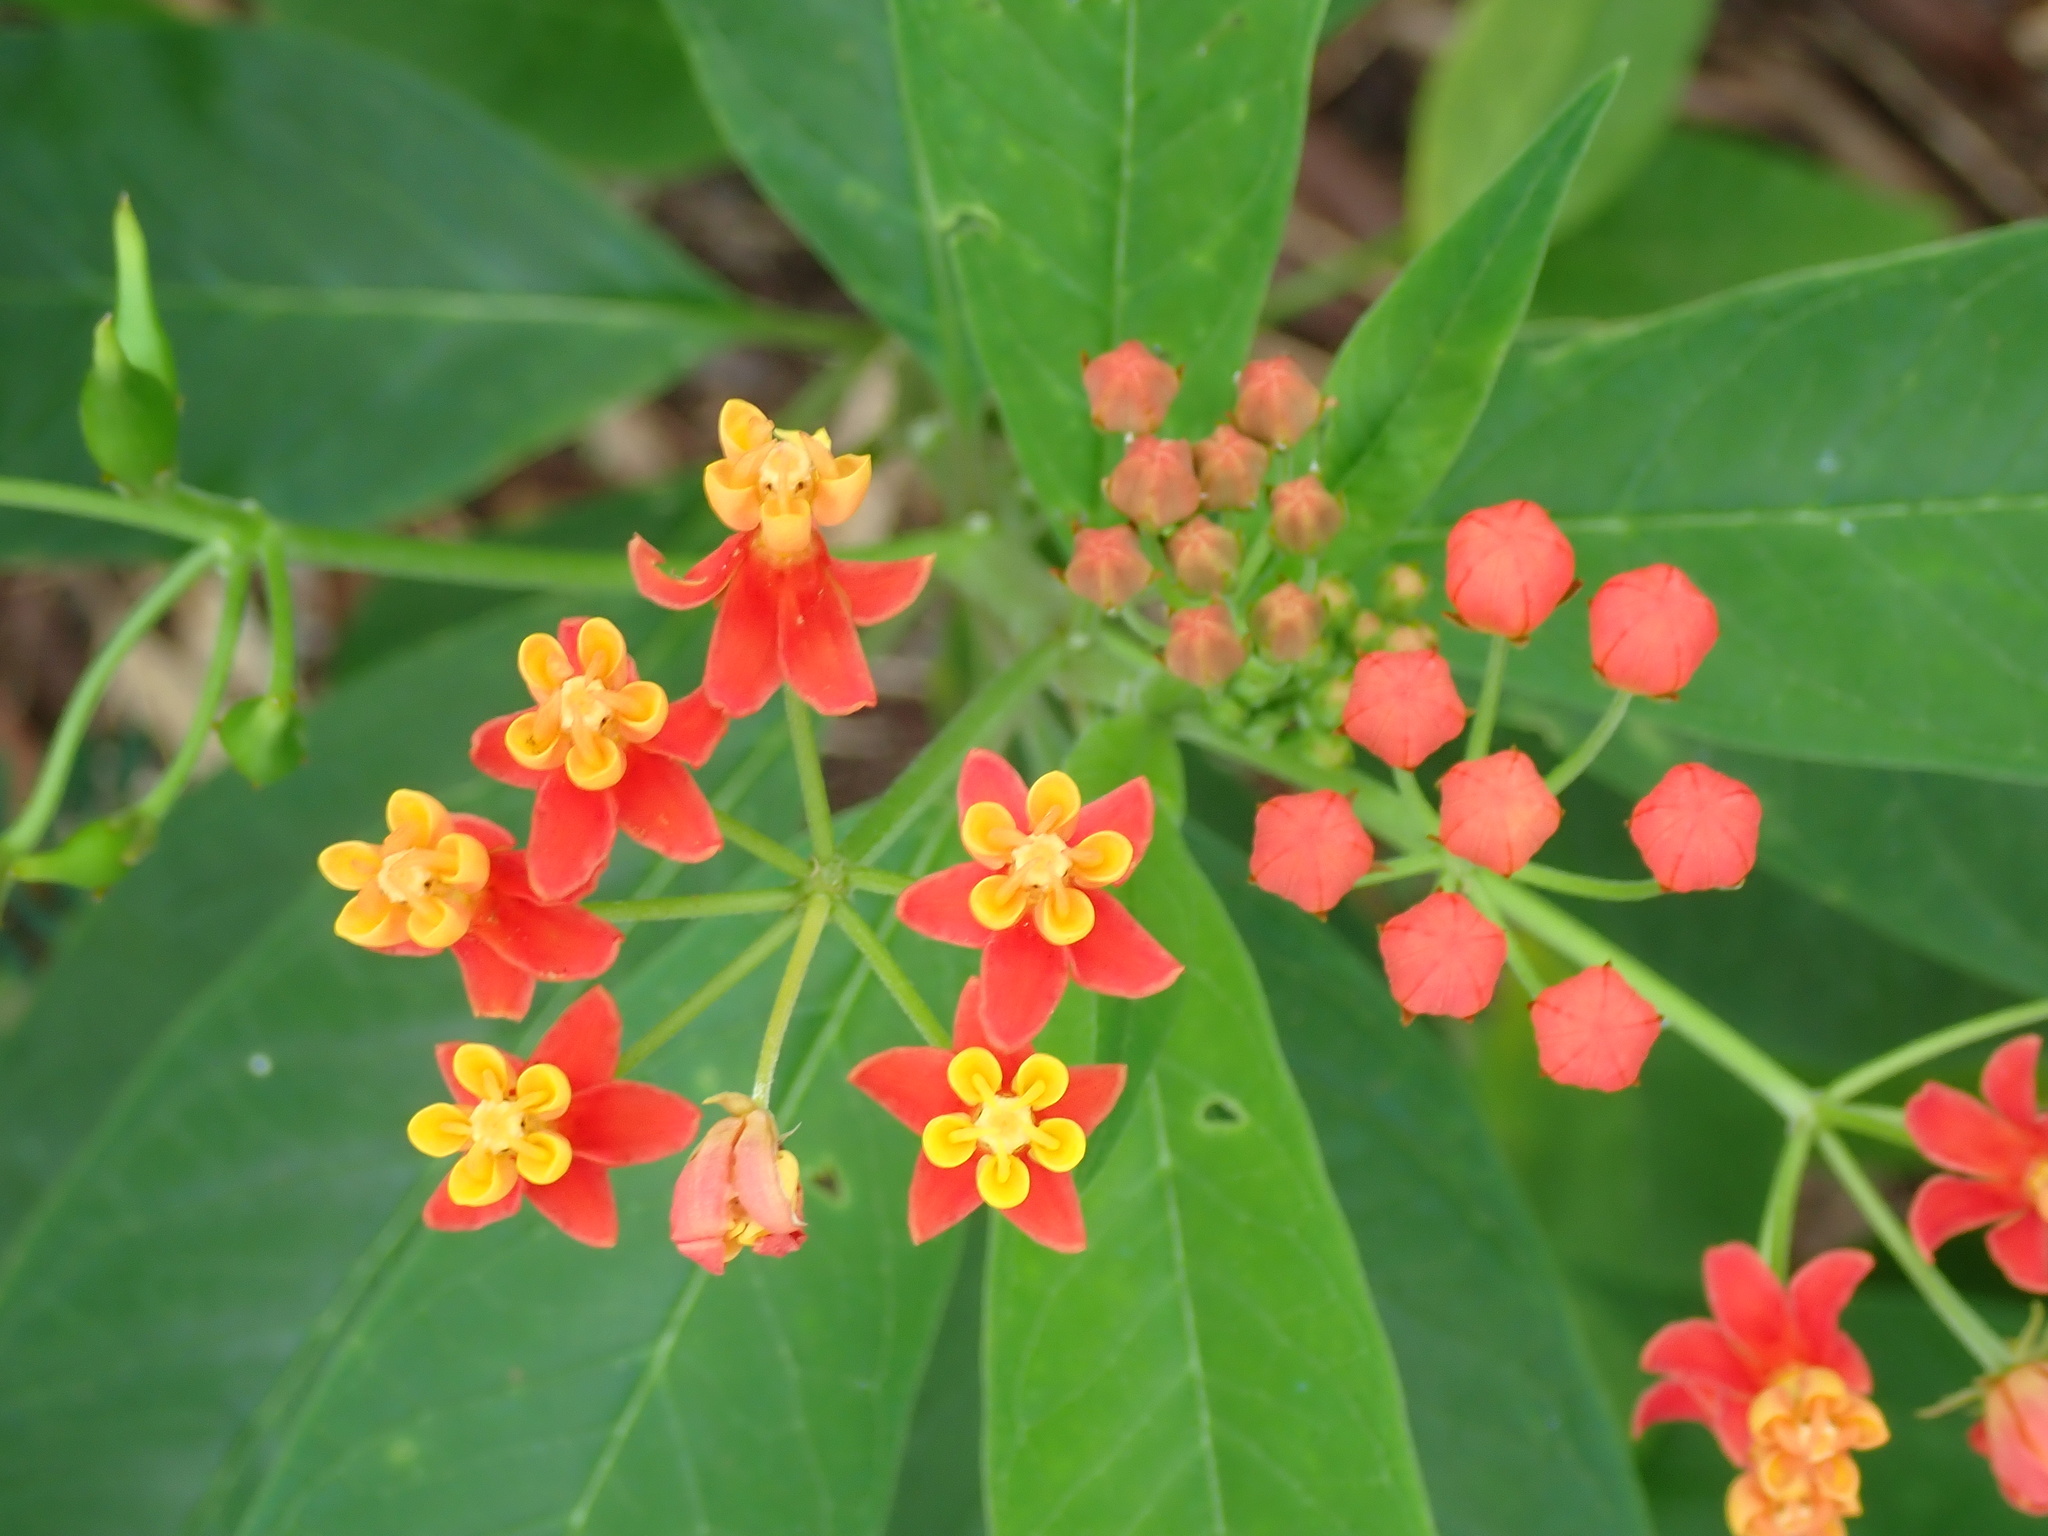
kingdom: Plantae
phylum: Tracheophyta
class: Magnoliopsida
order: Gentianales
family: Apocynaceae
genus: Asclepias
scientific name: Asclepias curassavica
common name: Bloodflower
